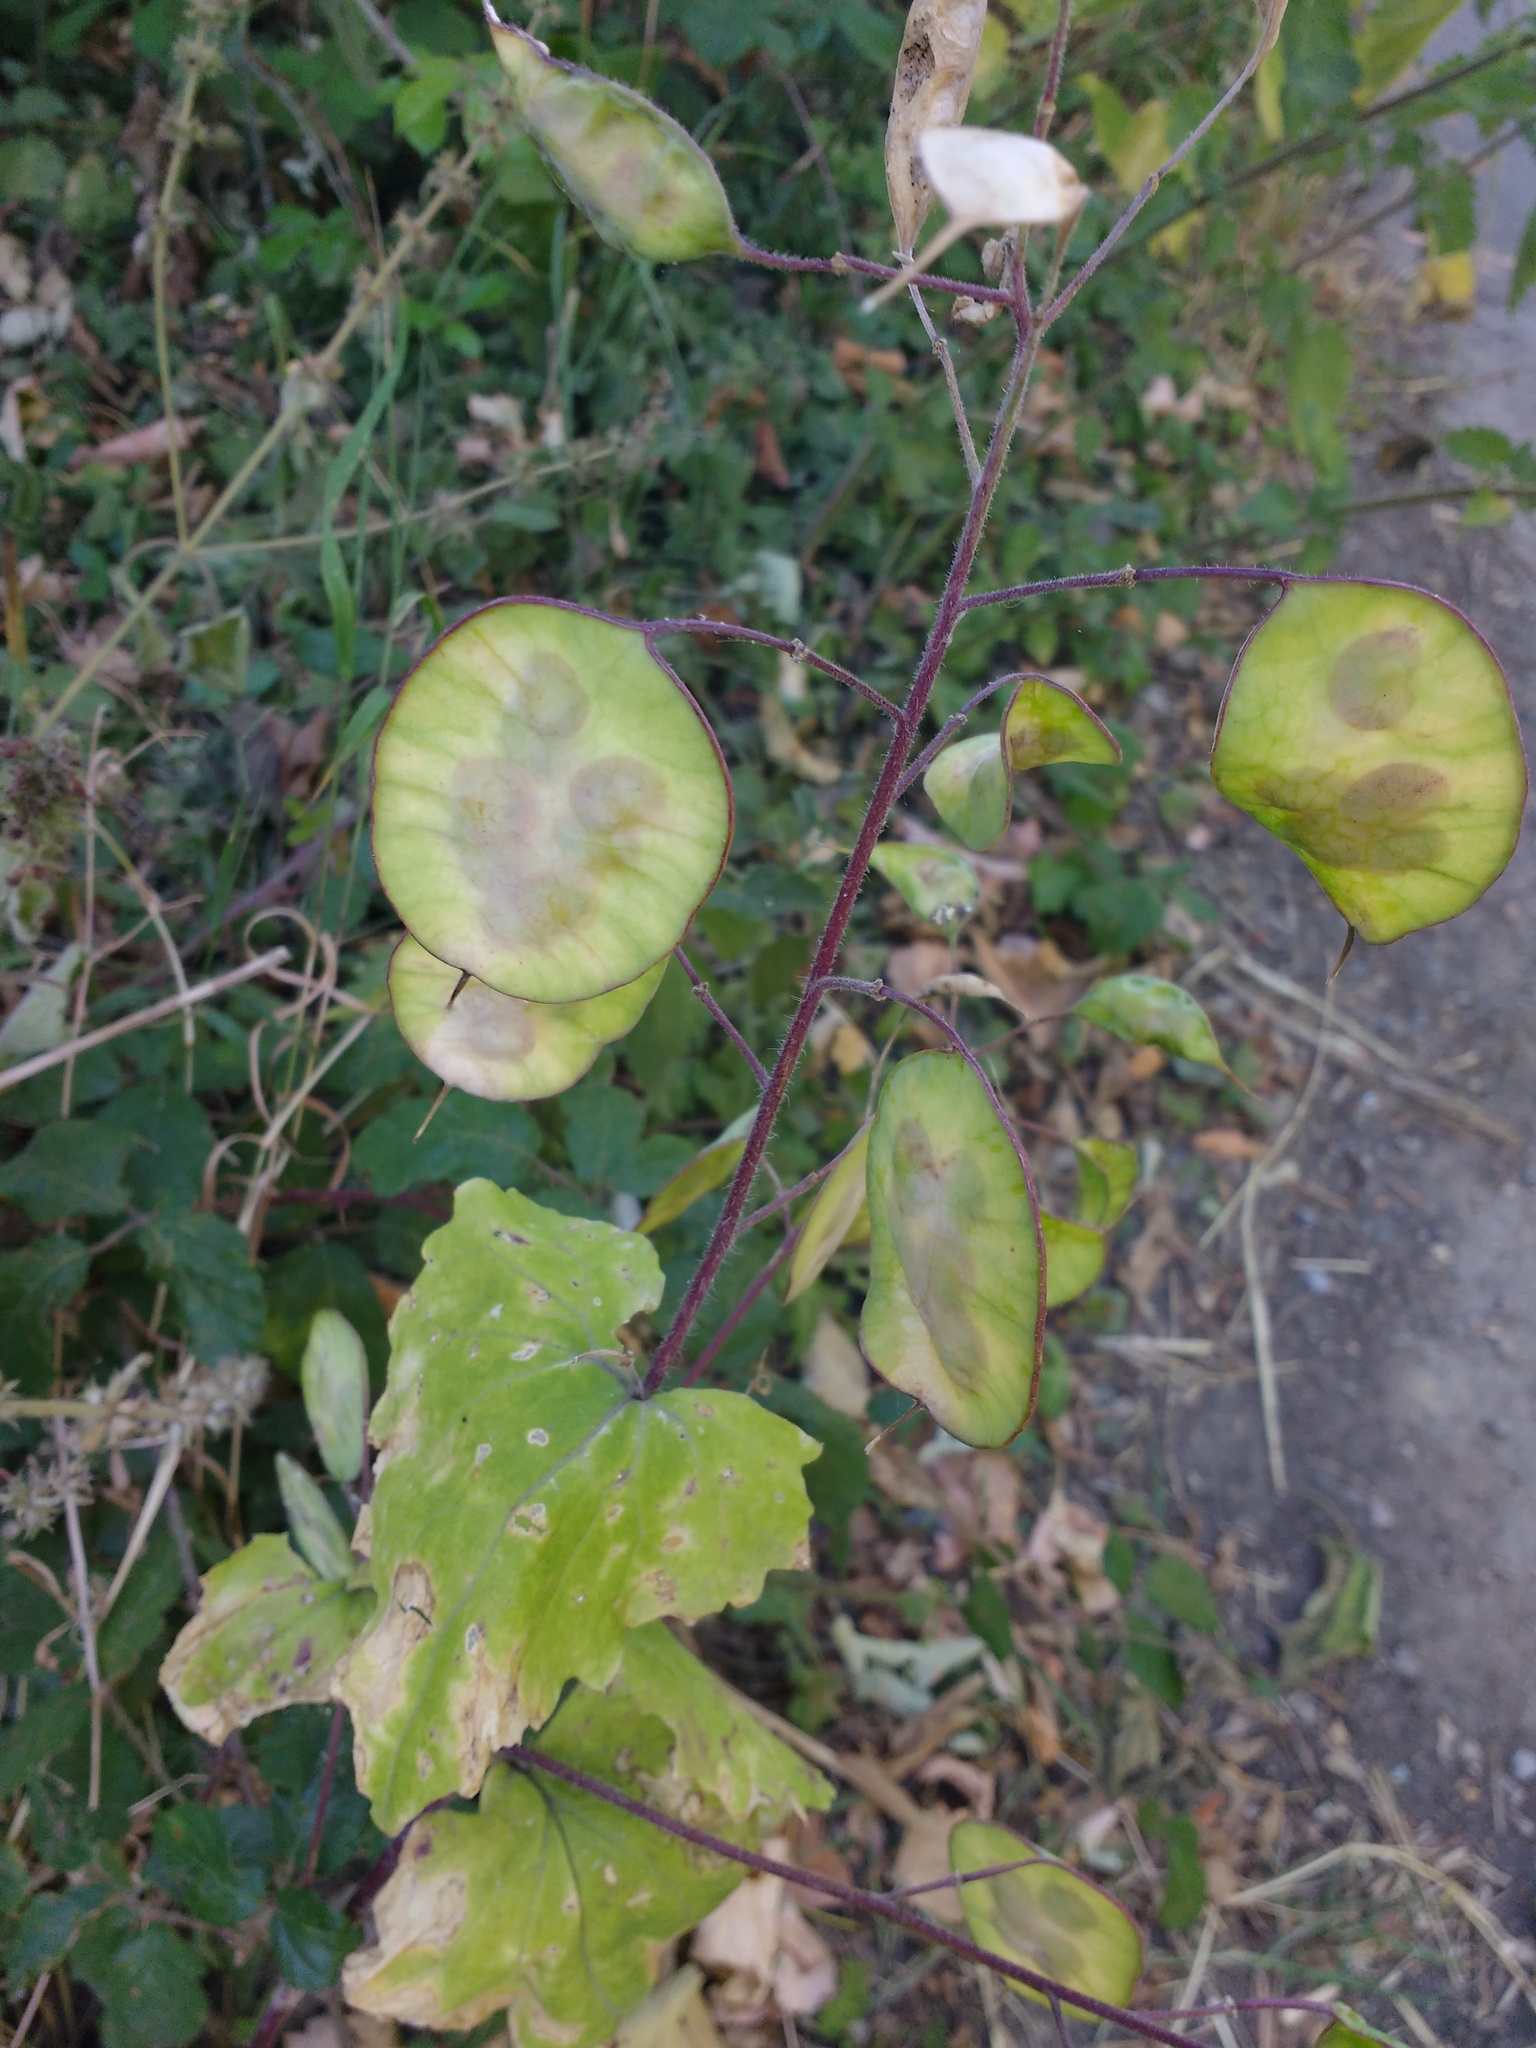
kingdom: Plantae
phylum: Tracheophyta
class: Magnoliopsida
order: Brassicales
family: Brassicaceae
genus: Lunaria
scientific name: Lunaria annua
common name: Honesty
